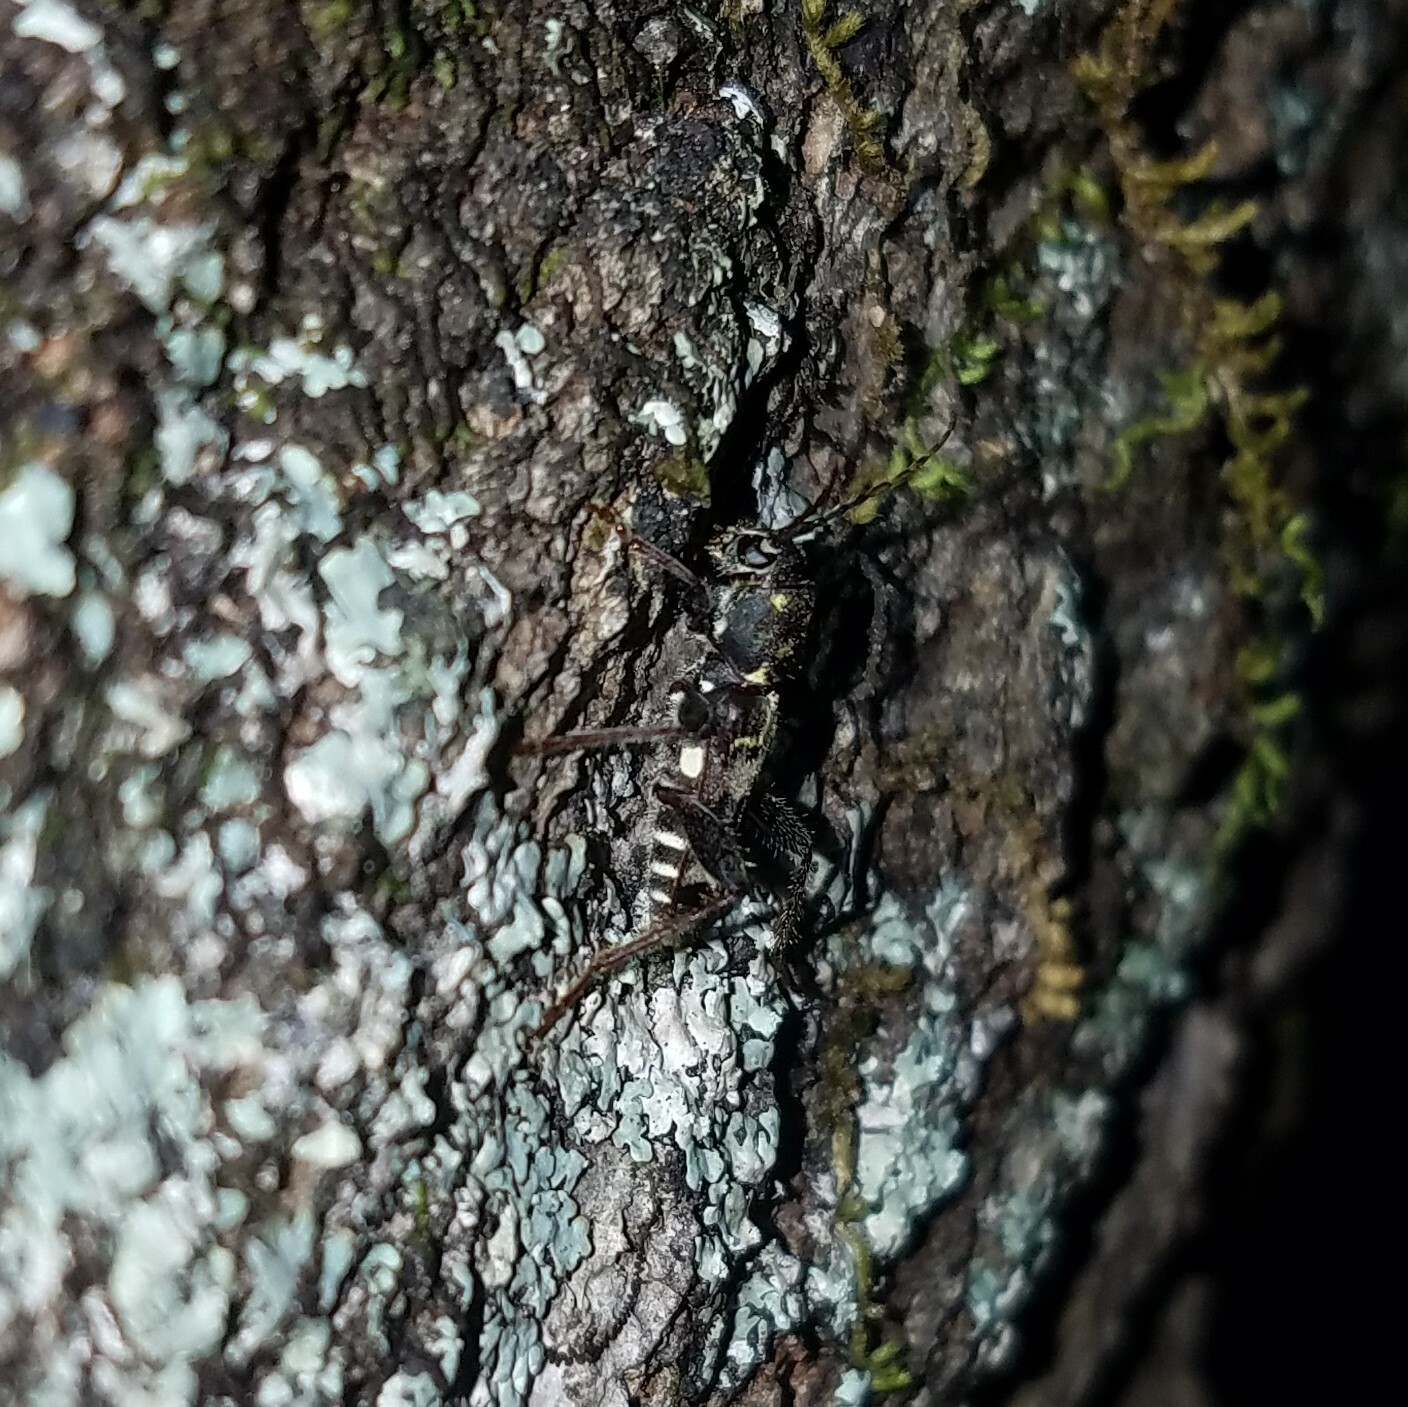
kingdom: Animalia
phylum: Arthropoda
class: Insecta
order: Coleoptera
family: Cerambycidae
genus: Xylotrechus
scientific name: Xylotrechus colonus
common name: Long-horned beetle
